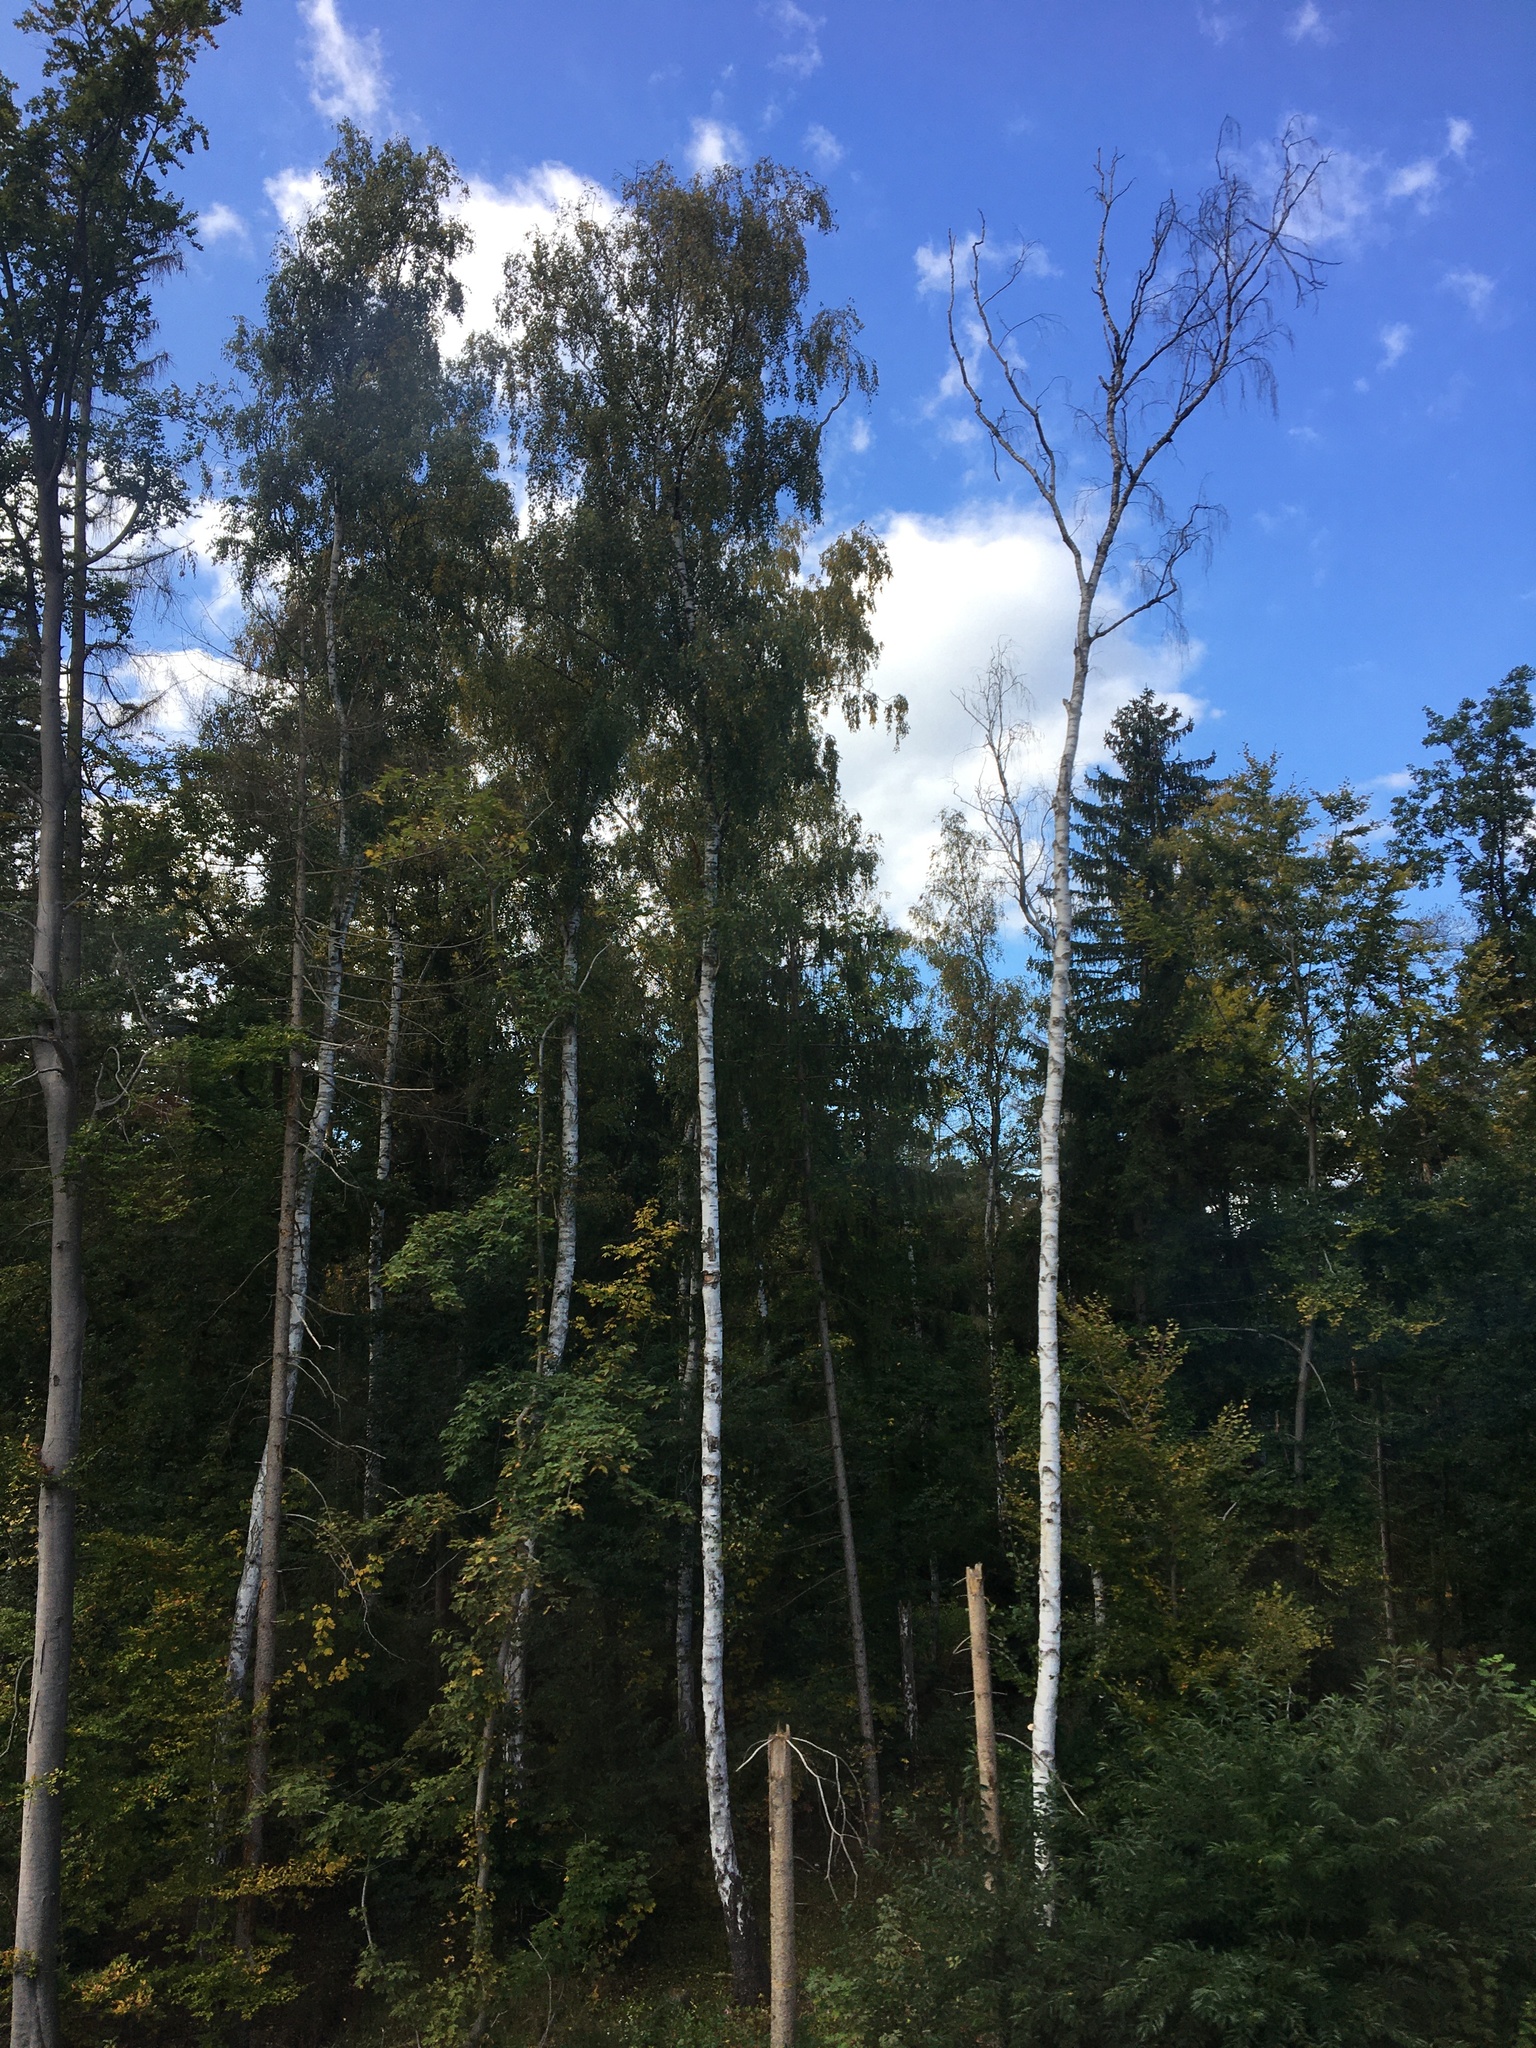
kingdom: Plantae
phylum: Tracheophyta
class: Magnoliopsida
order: Fagales
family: Betulaceae
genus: Betula
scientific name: Betula pendula
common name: Silver birch
